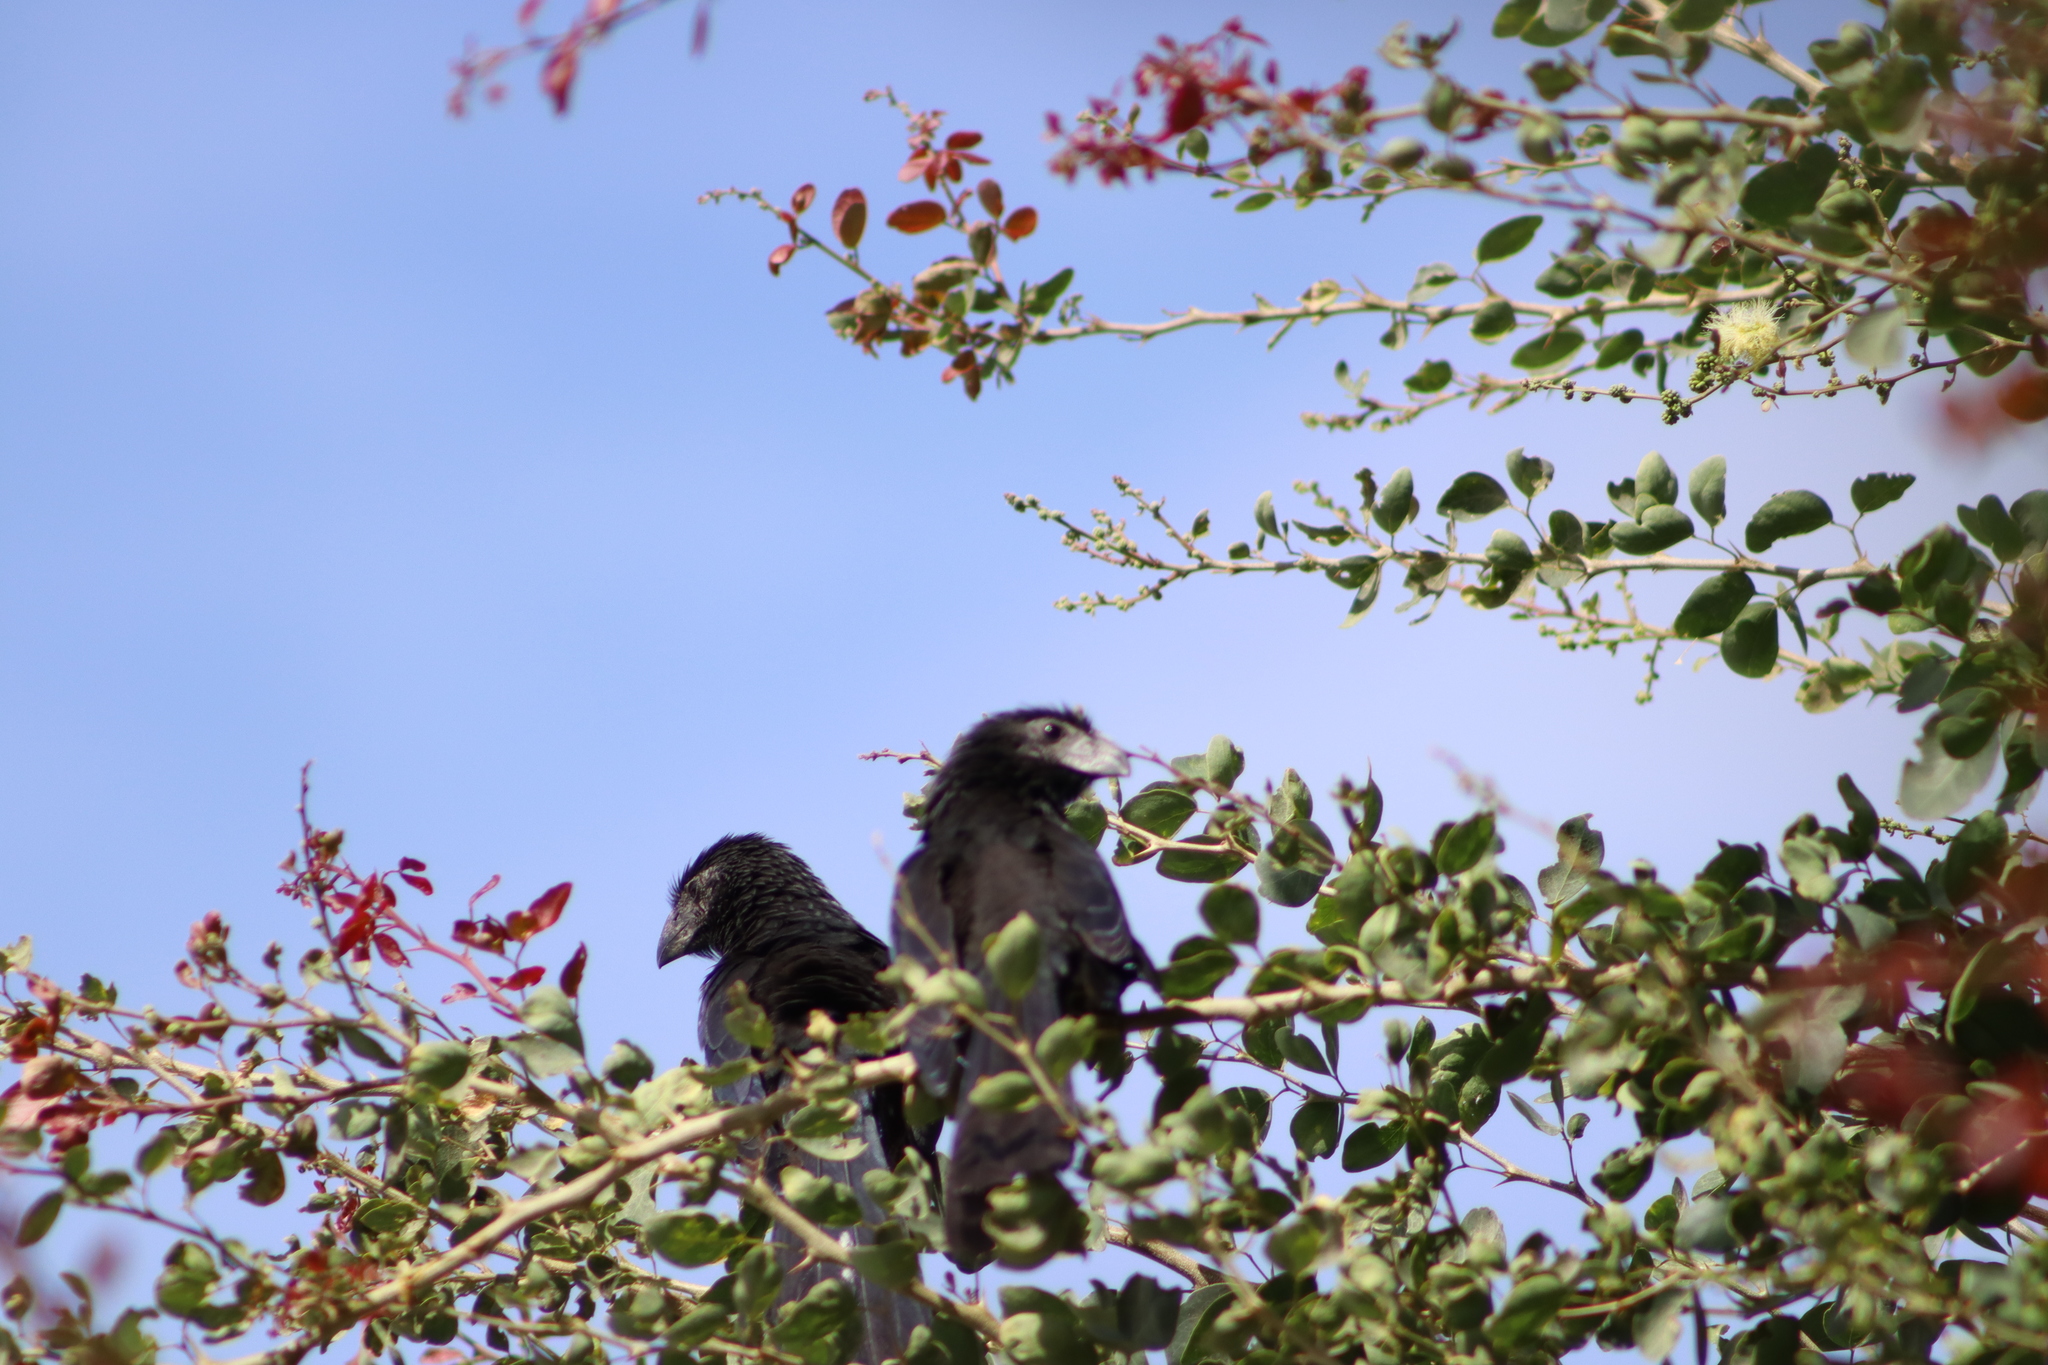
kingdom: Animalia
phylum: Chordata
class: Aves
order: Cuculiformes
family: Cuculidae
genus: Crotophaga
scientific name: Crotophaga sulcirostris
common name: Groove-billed ani
